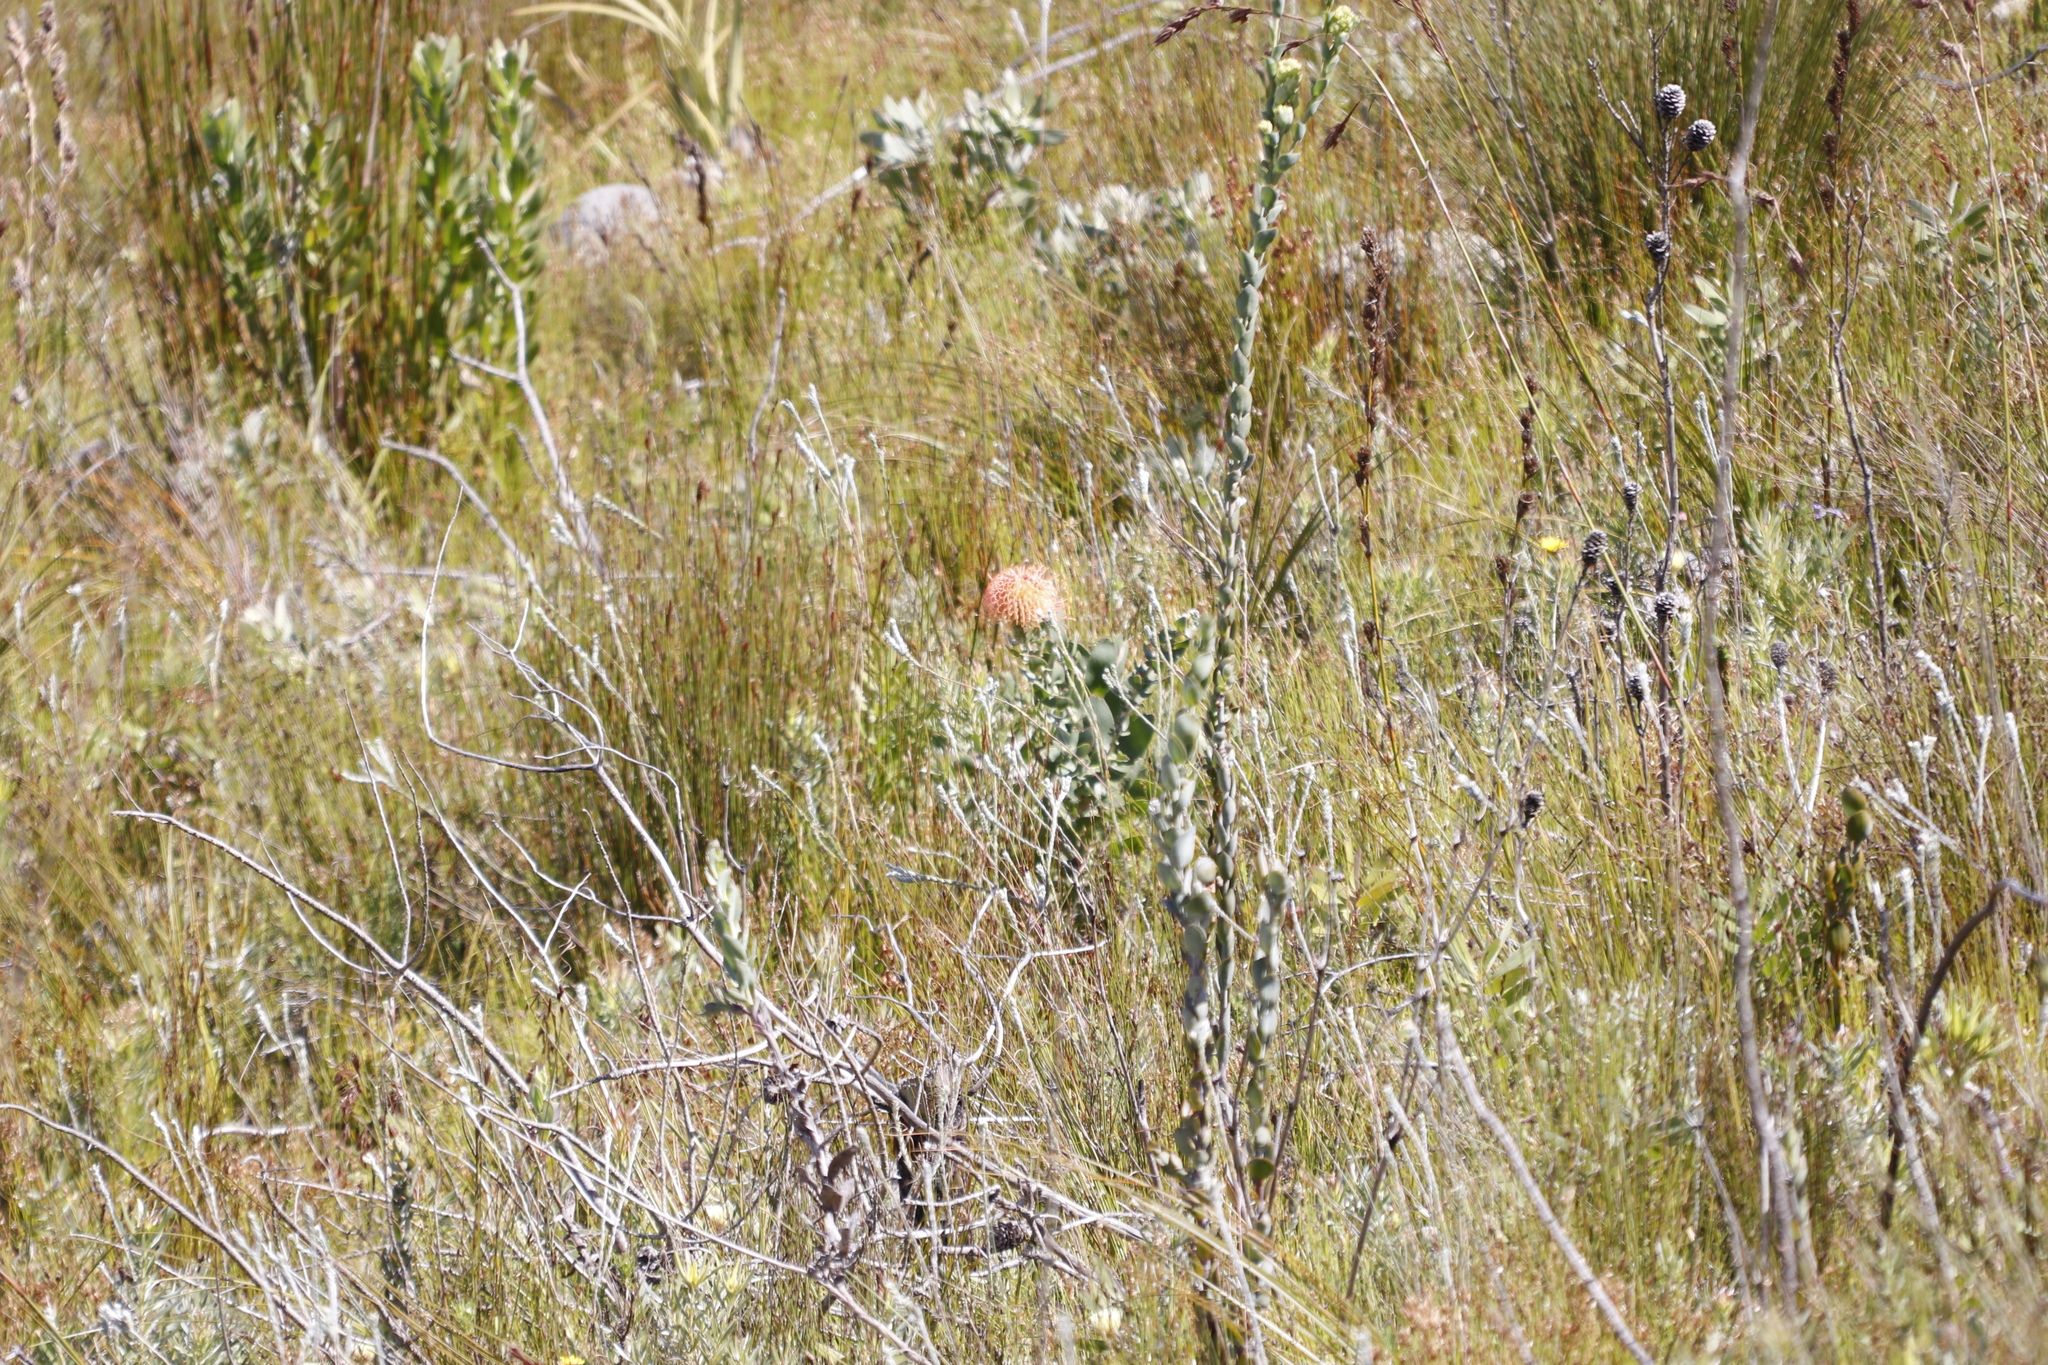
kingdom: Plantae
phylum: Tracheophyta
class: Magnoliopsida
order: Proteales
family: Proteaceae
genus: Leucospermum
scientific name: Leucospermum cordifolium
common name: Red pincushion-protea
